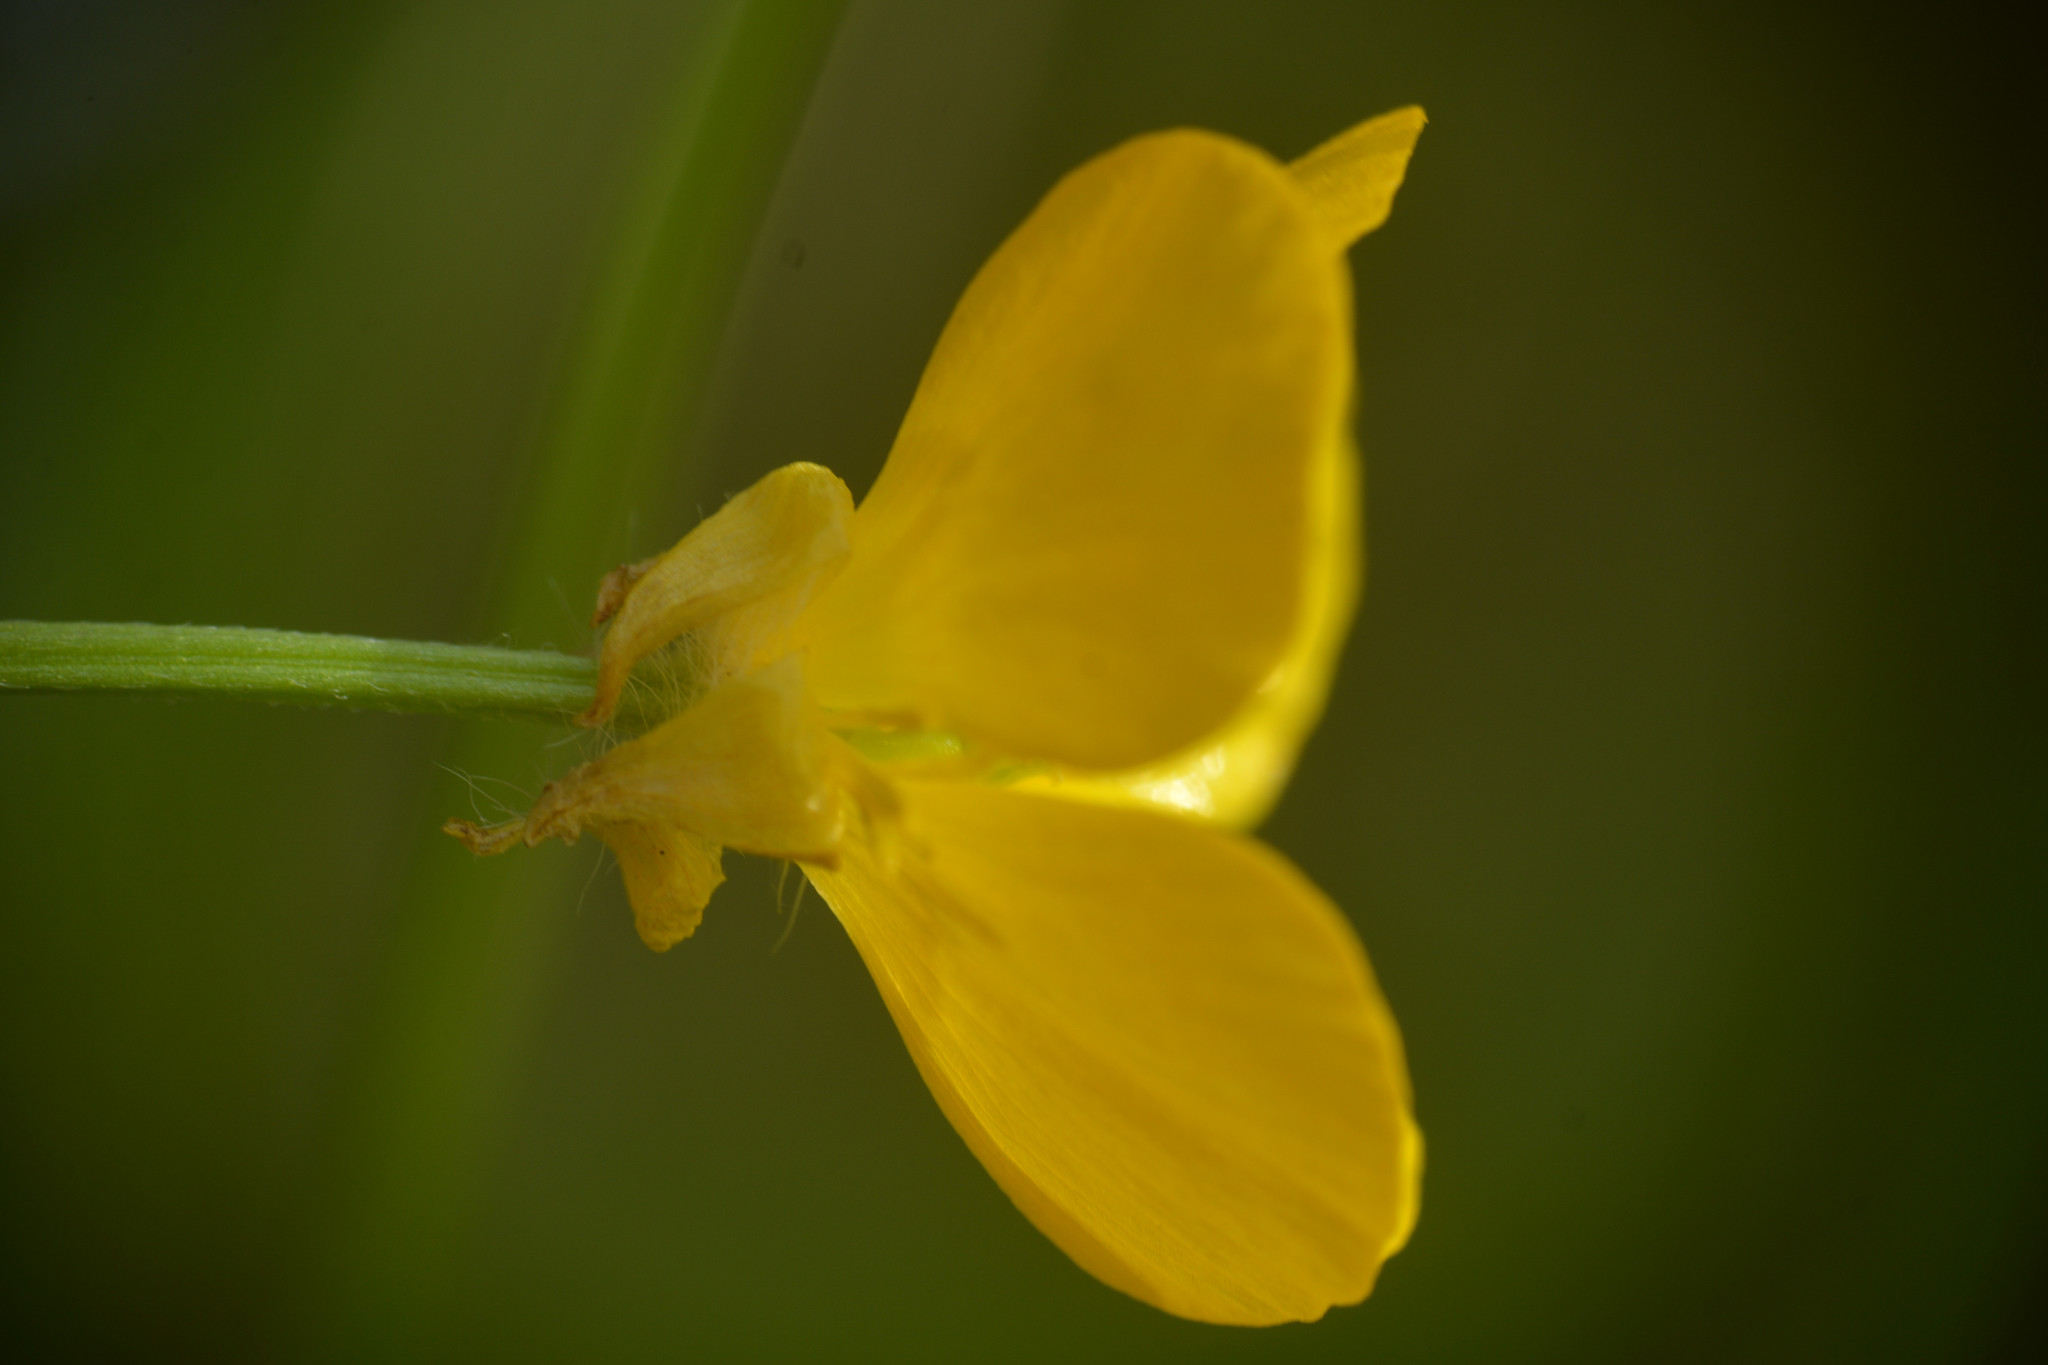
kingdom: Plantae
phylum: Tracheophyta
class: Magnoliopsida
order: Ranunculales
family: Ranunculaceae
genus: Ranunculus
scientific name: Ranunculus bulbosus
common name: Bulbous buttercup
